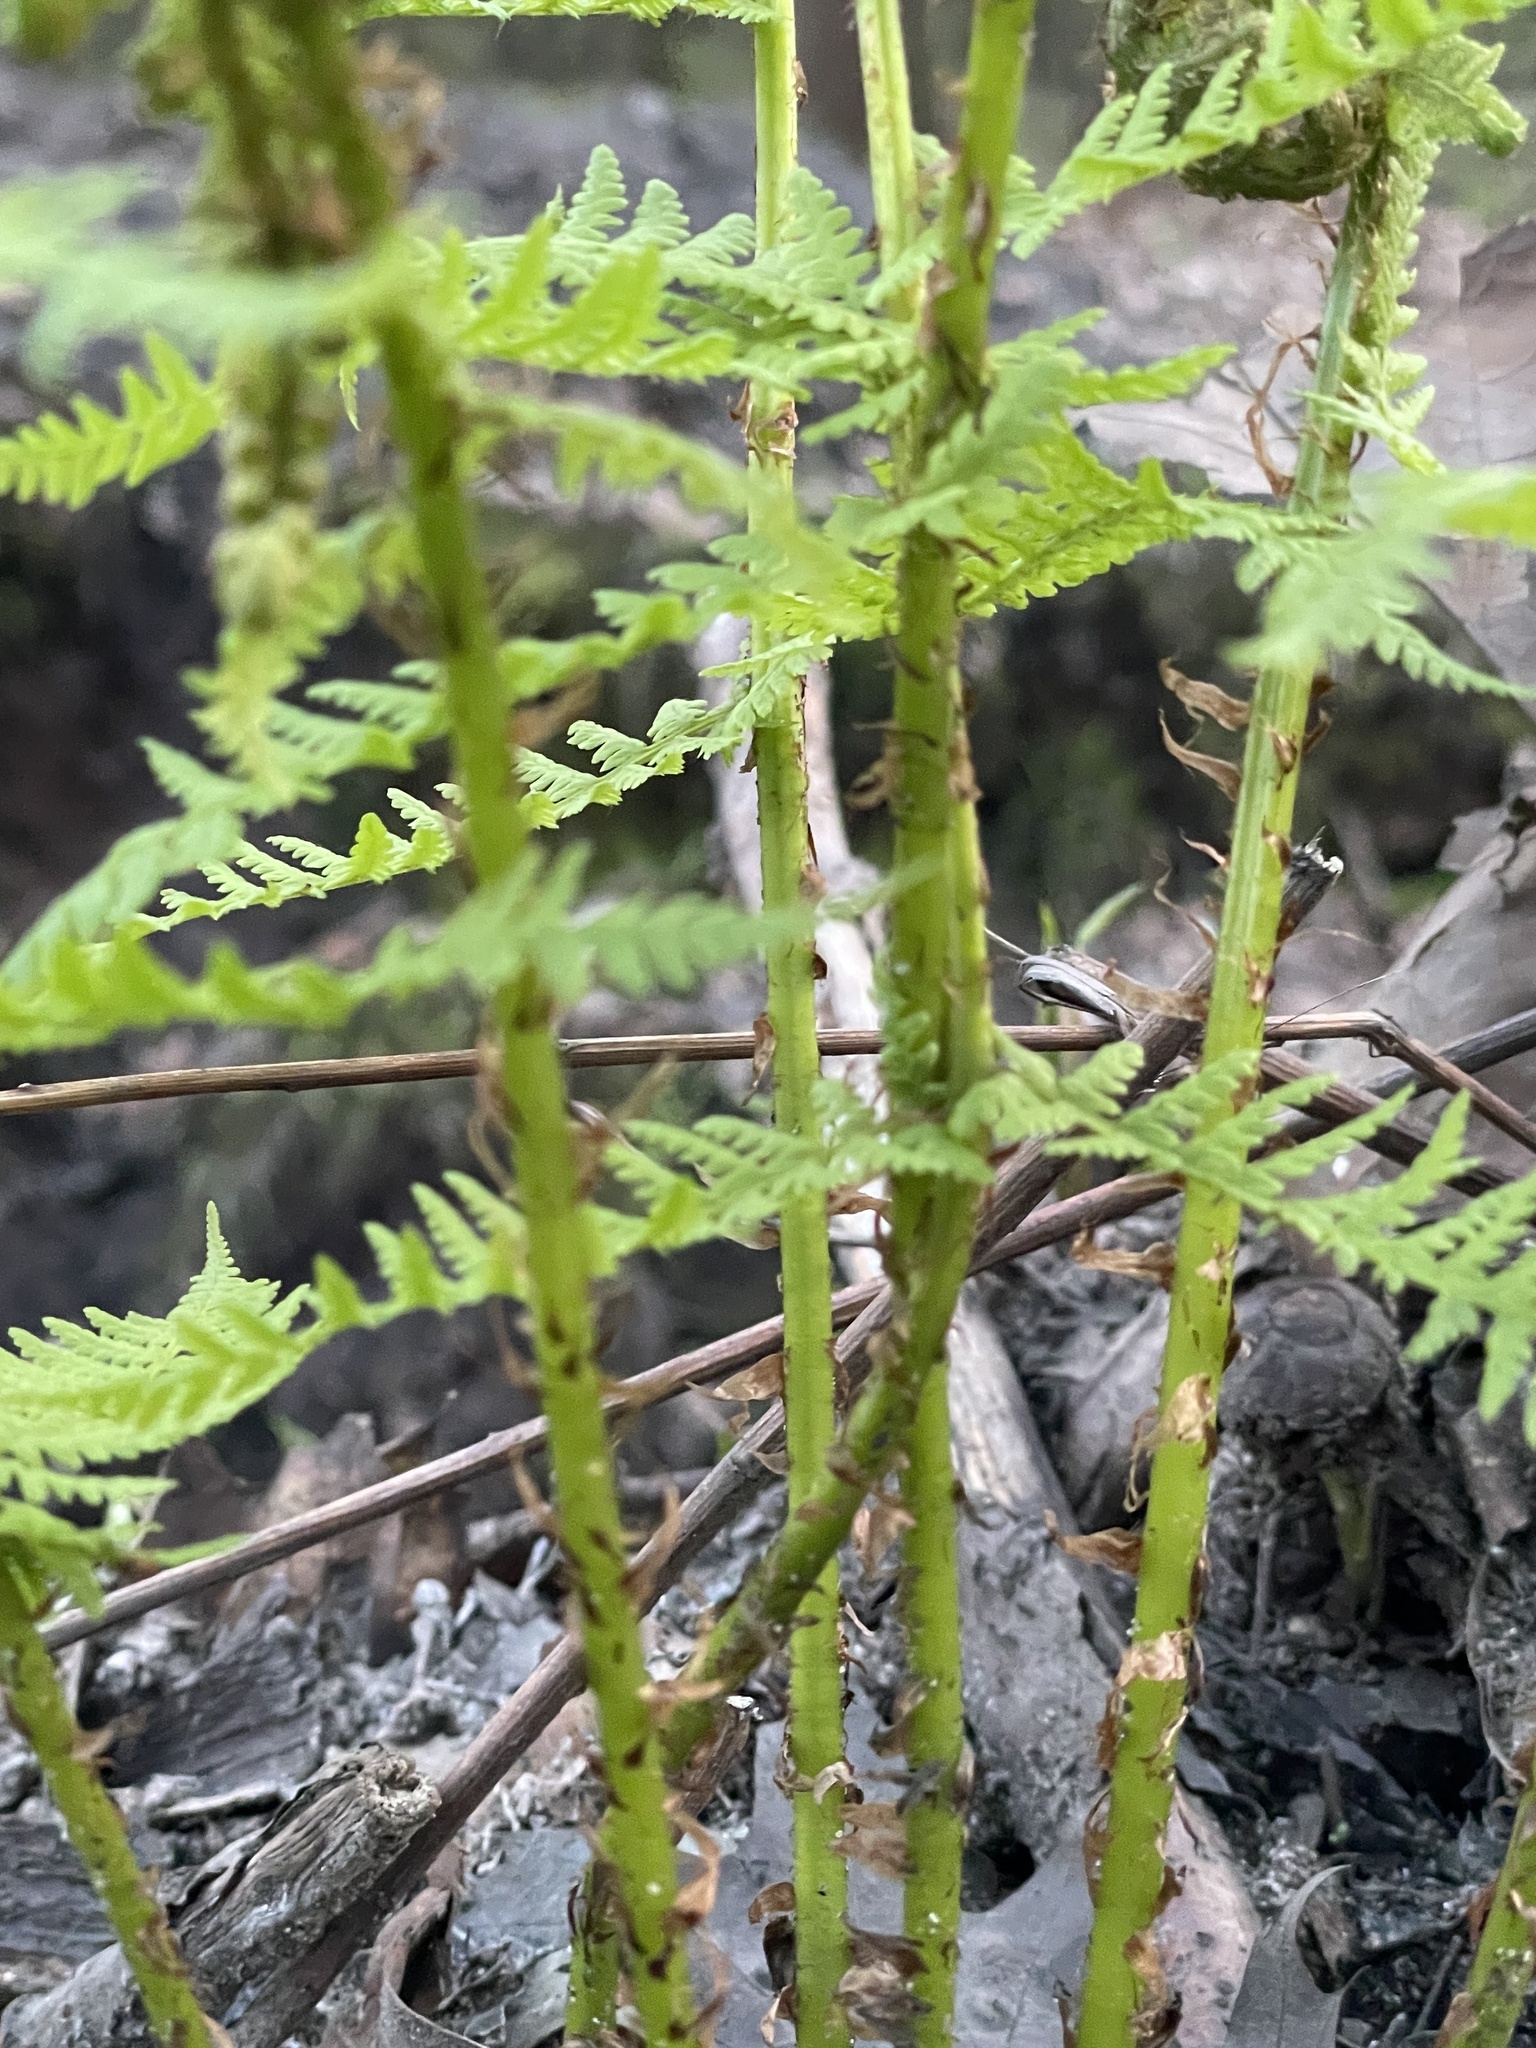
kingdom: Plantae
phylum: Tracheophyta
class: Polypodiopsida
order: Polypodiales
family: Athyriaceae
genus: Athyrium
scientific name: Athyrium filix-femina
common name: Lady fern
